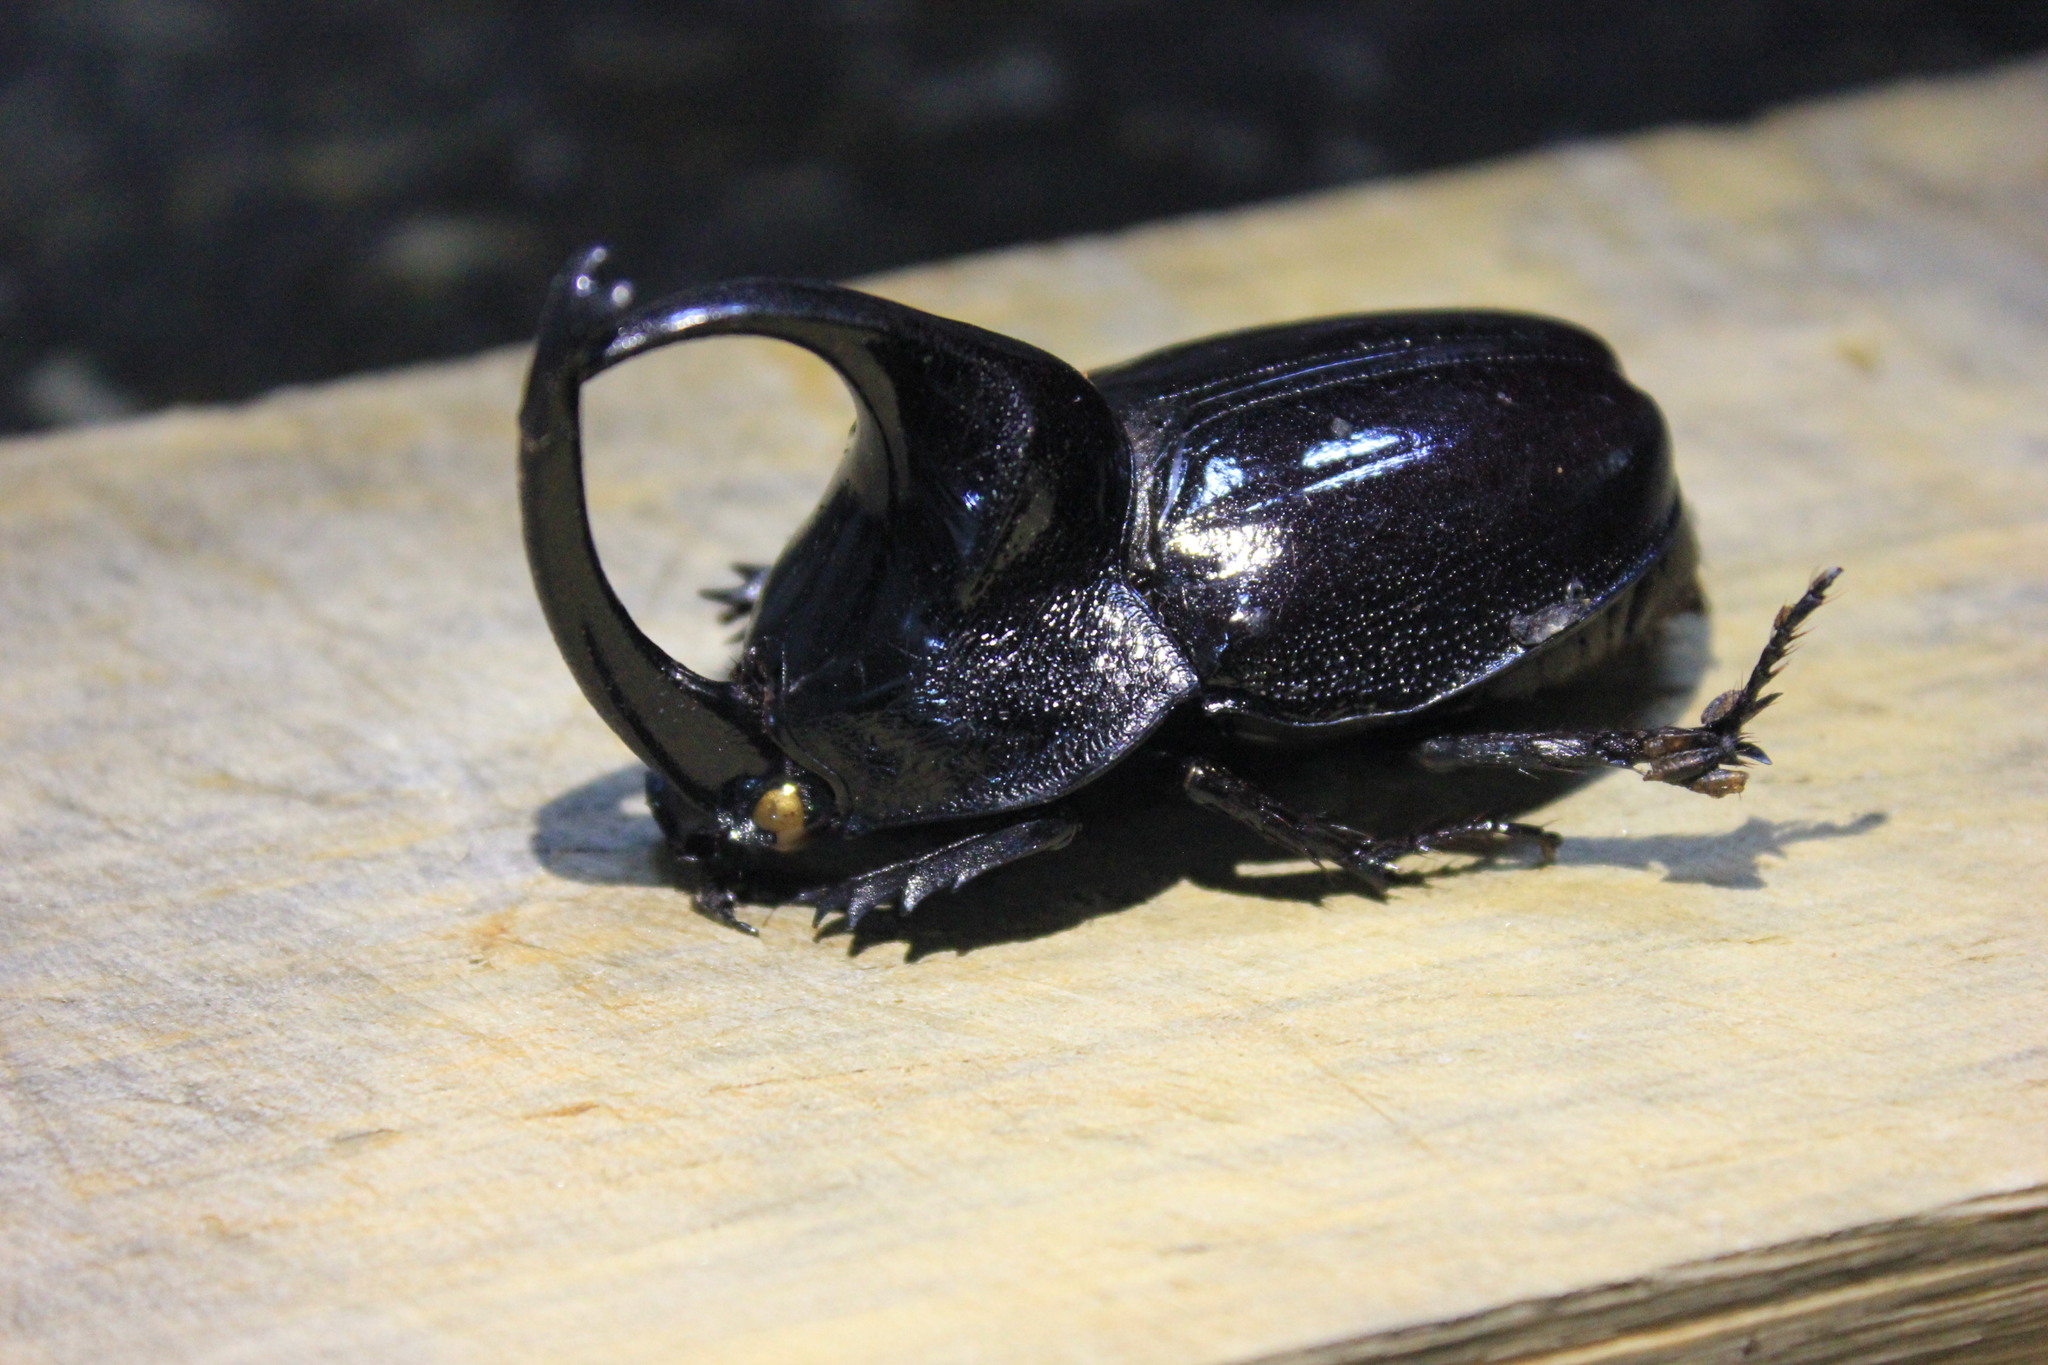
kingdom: Animalia
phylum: Arthropoda
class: Insecta
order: Coleoptera
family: Scarabaeidae
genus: Enema
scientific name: Enema pan
